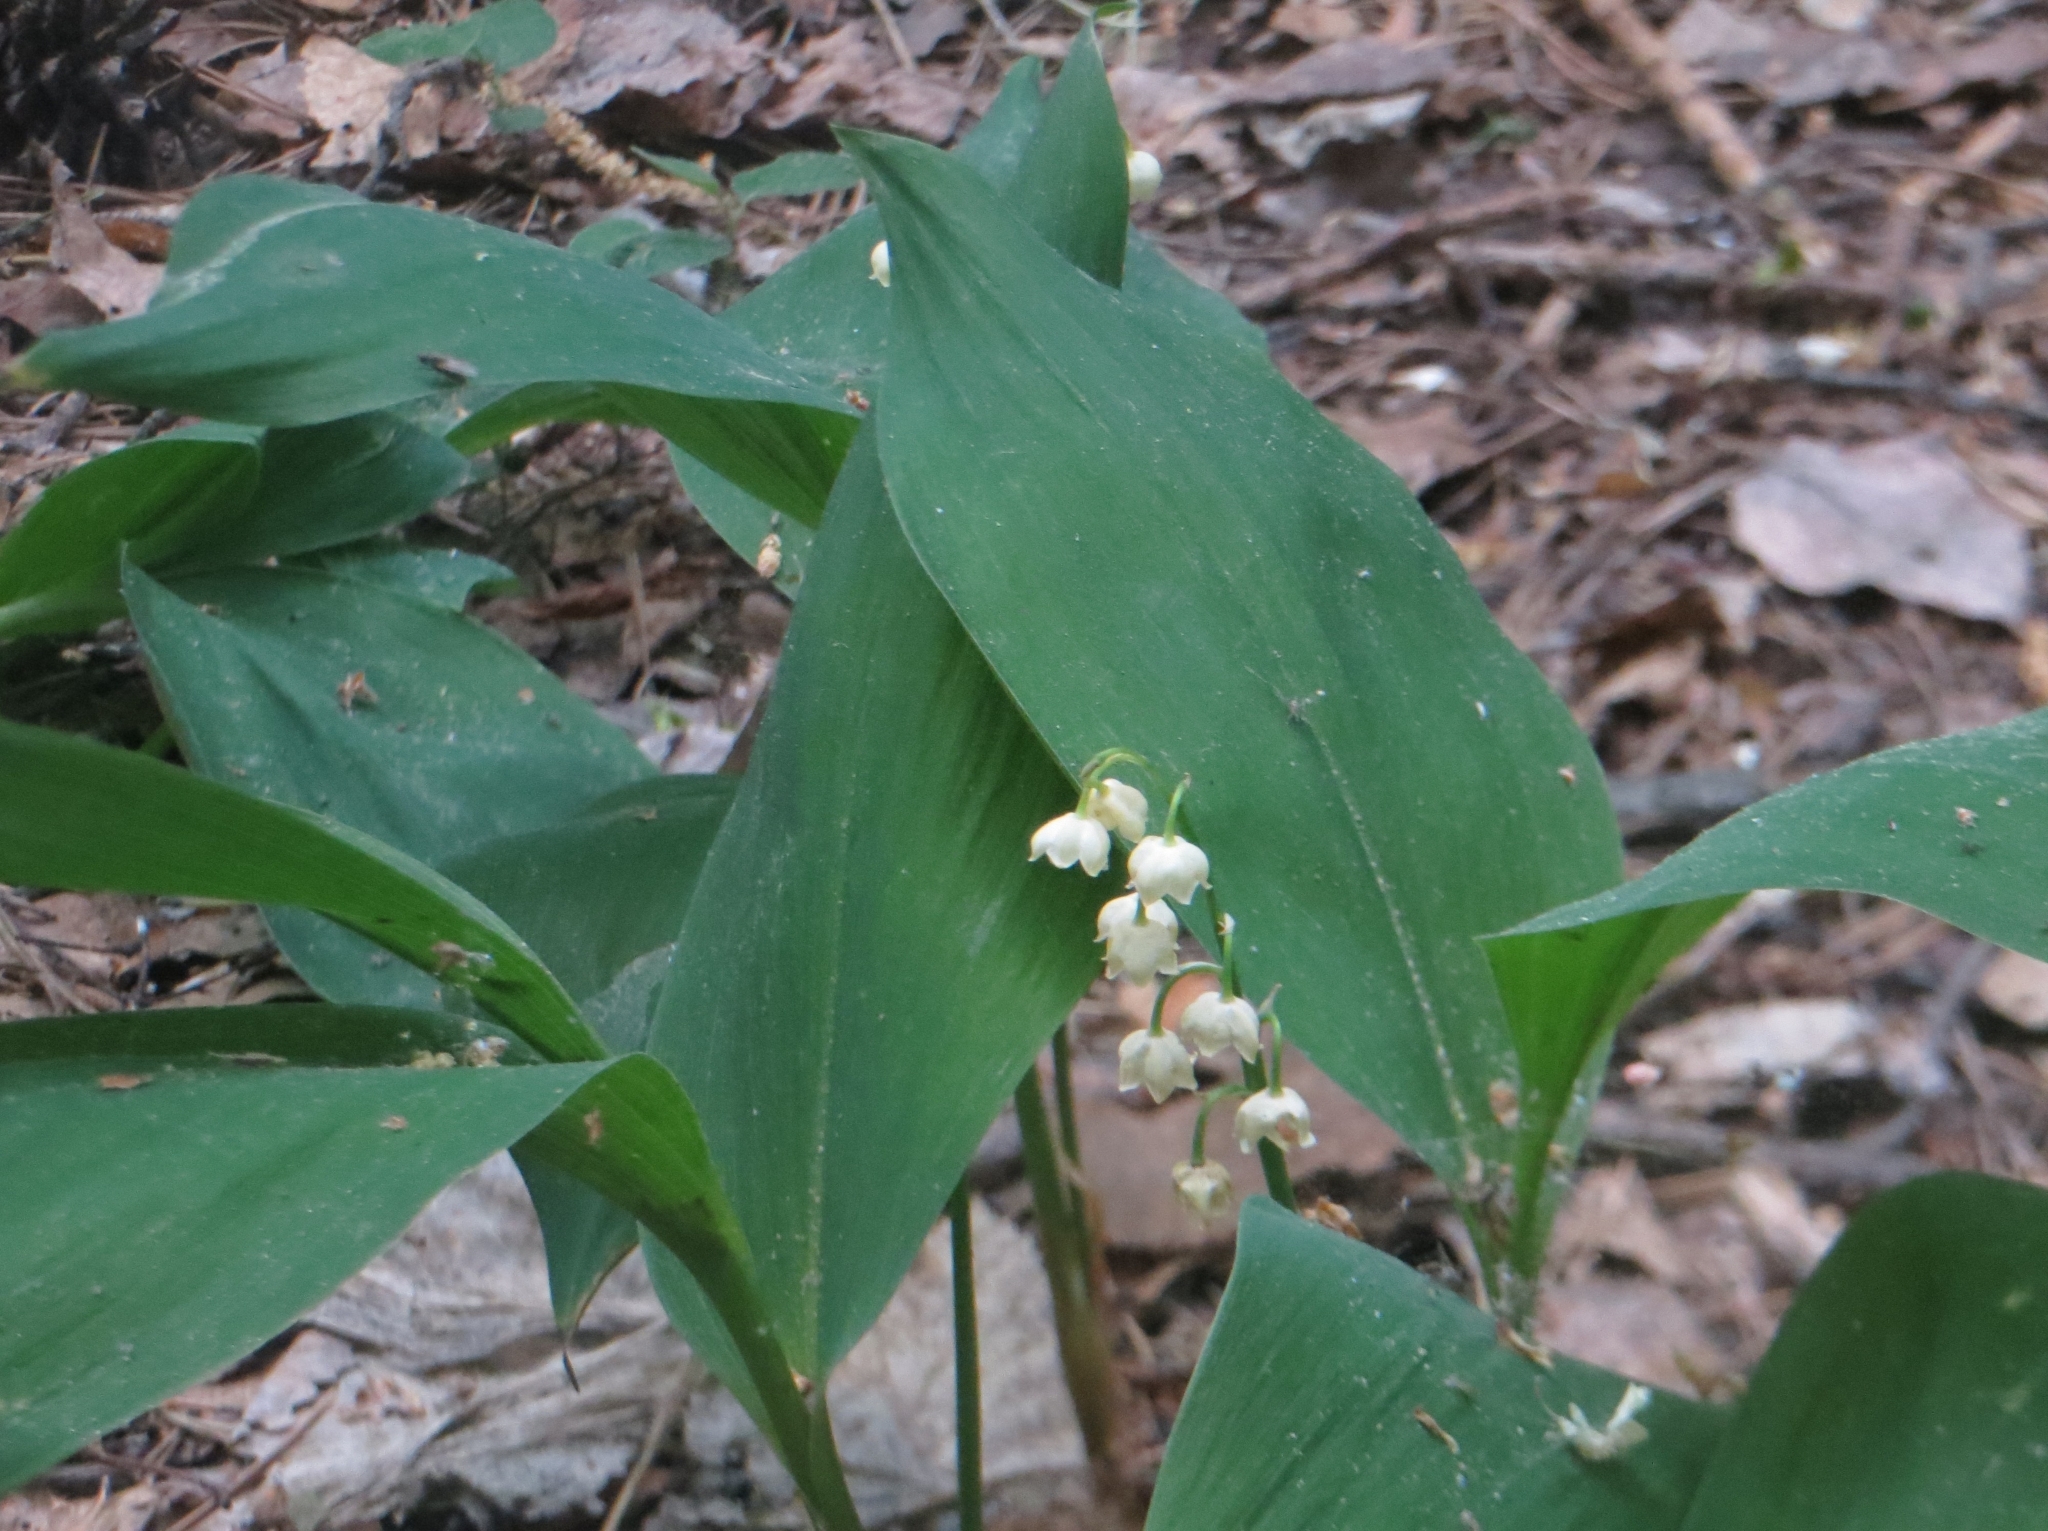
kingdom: Plantae
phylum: Tracheophyta
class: Liliopsida
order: Asparagales
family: Asparagaceae
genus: Convallaria
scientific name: Convallaria majalis
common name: Lily-of-the-valley
